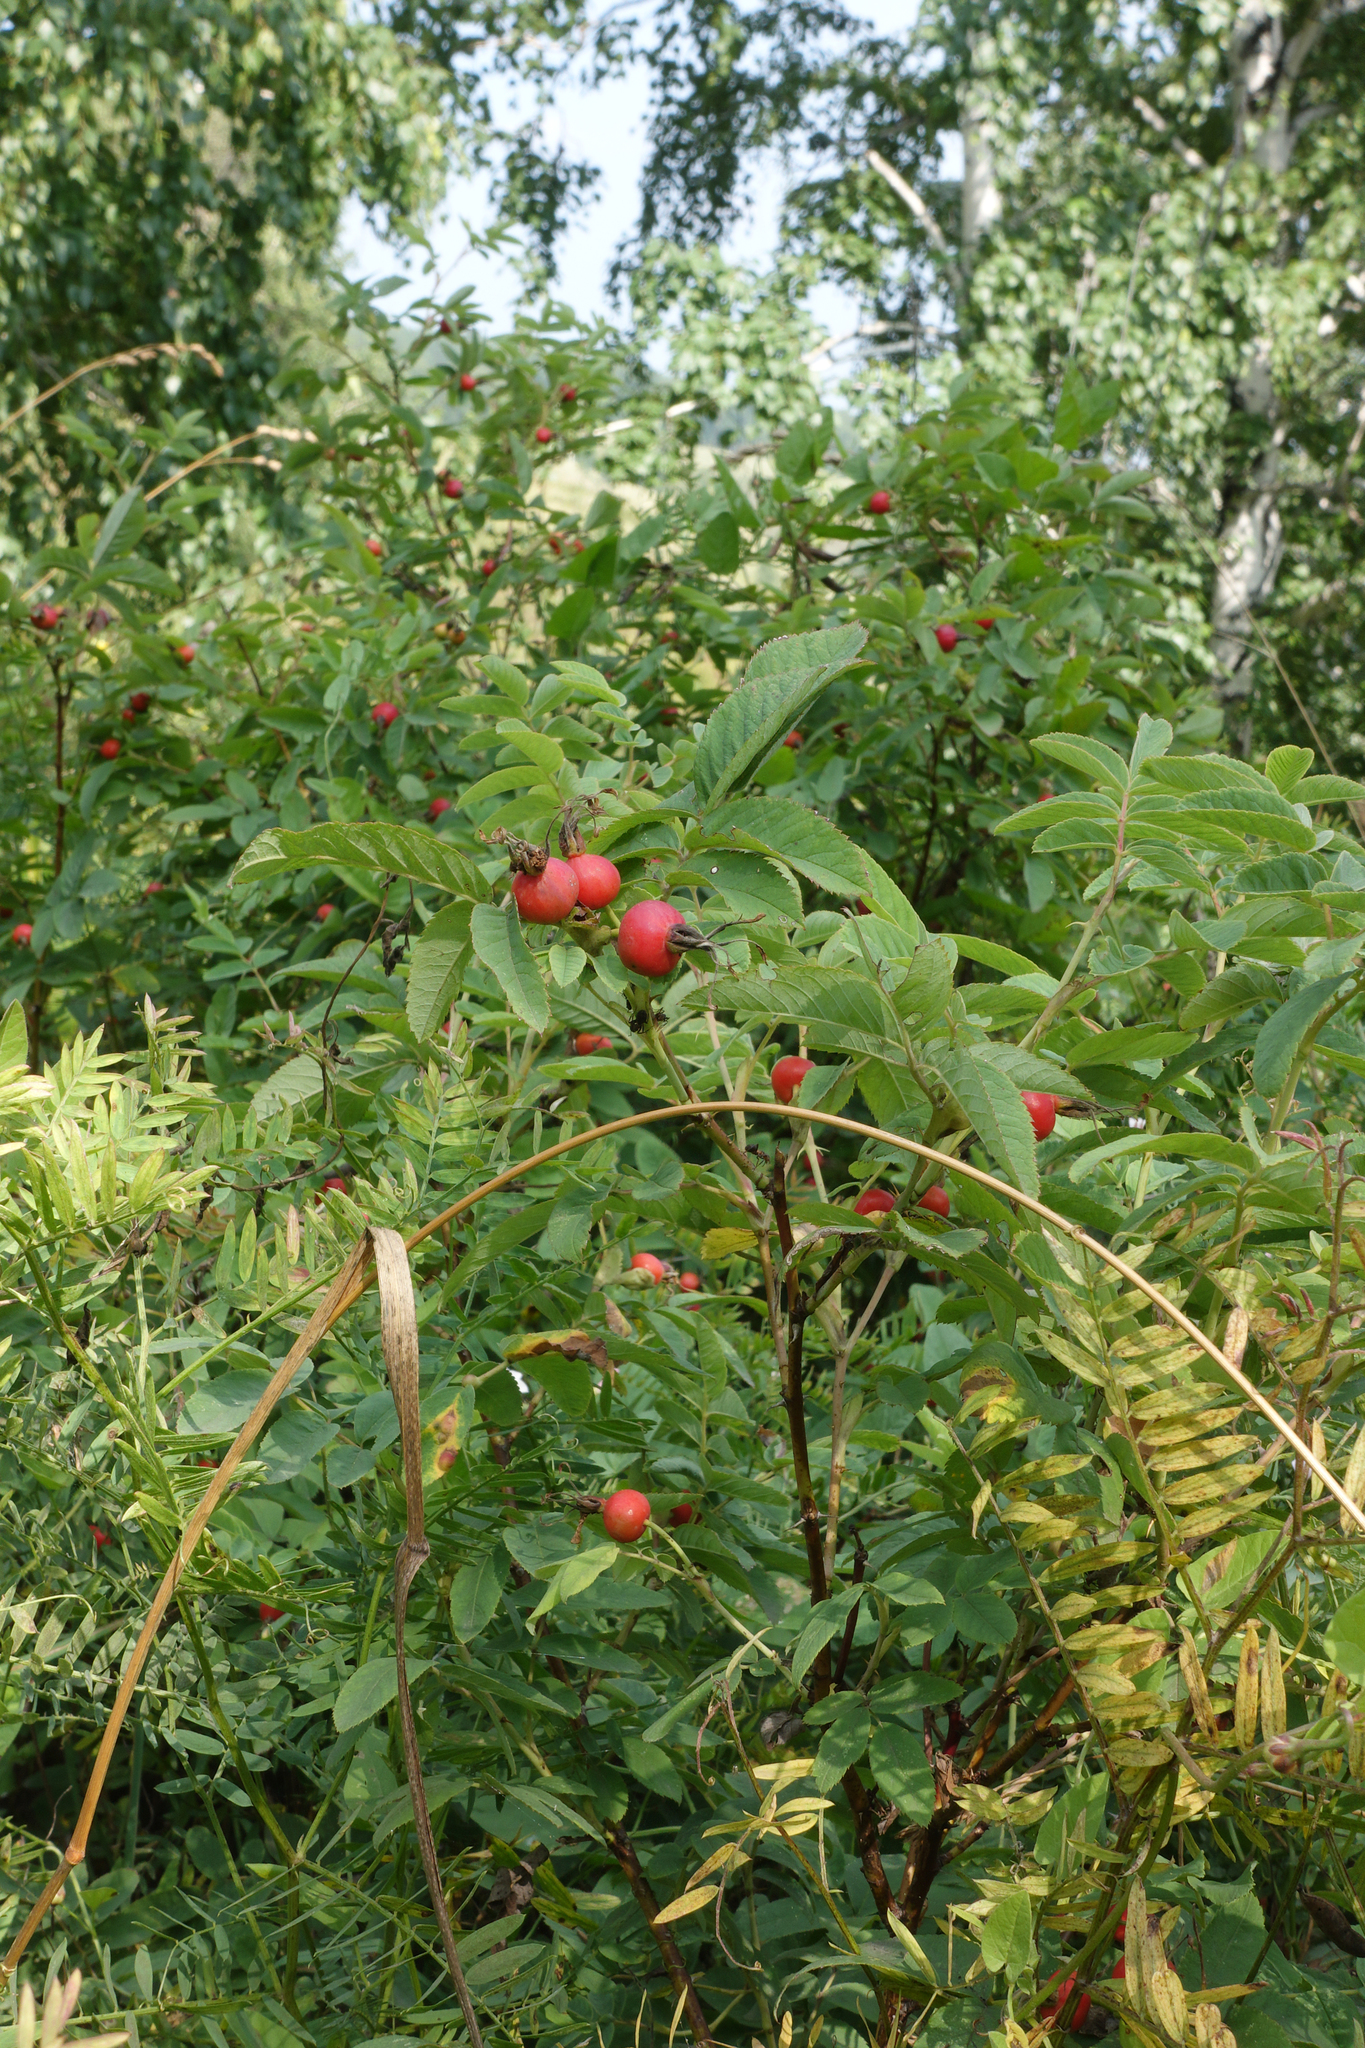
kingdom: Plantae
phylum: Tracheophyta
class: Magnoliopsida
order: Rosales
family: Rosaceae
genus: Rosa
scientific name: Rosa majalis
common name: Cinnamon rose
